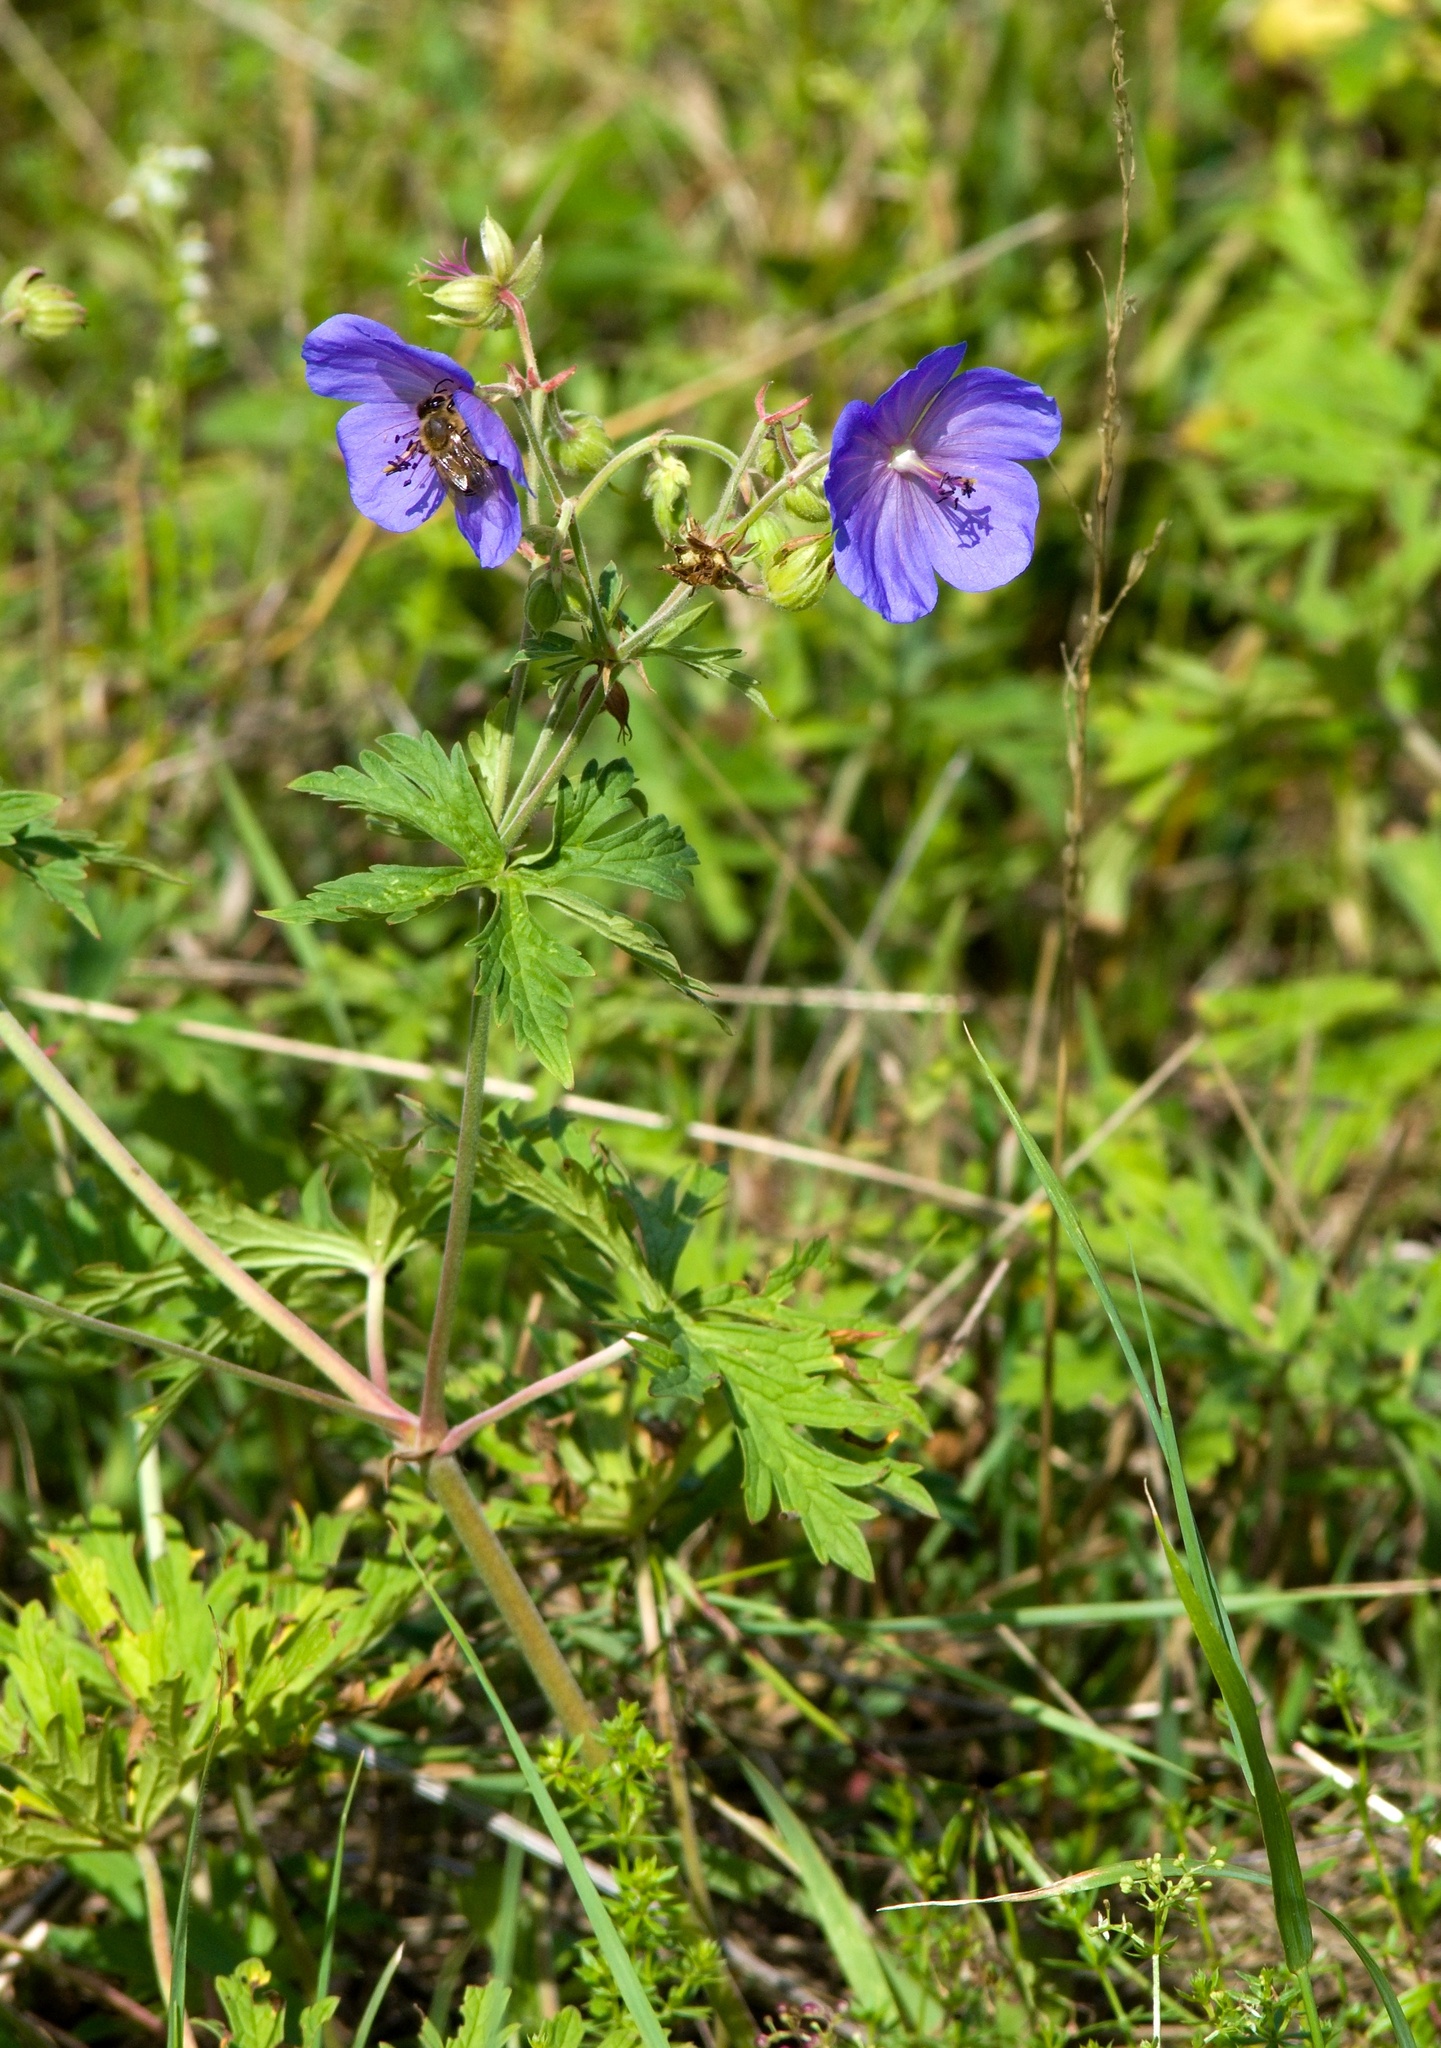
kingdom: Plantae
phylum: Tracheophyta
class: Magnoliopsida
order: Geraniales
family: Geraniaceae
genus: Geranium
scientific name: Geranium pratense
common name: Meadow crane's-bill
